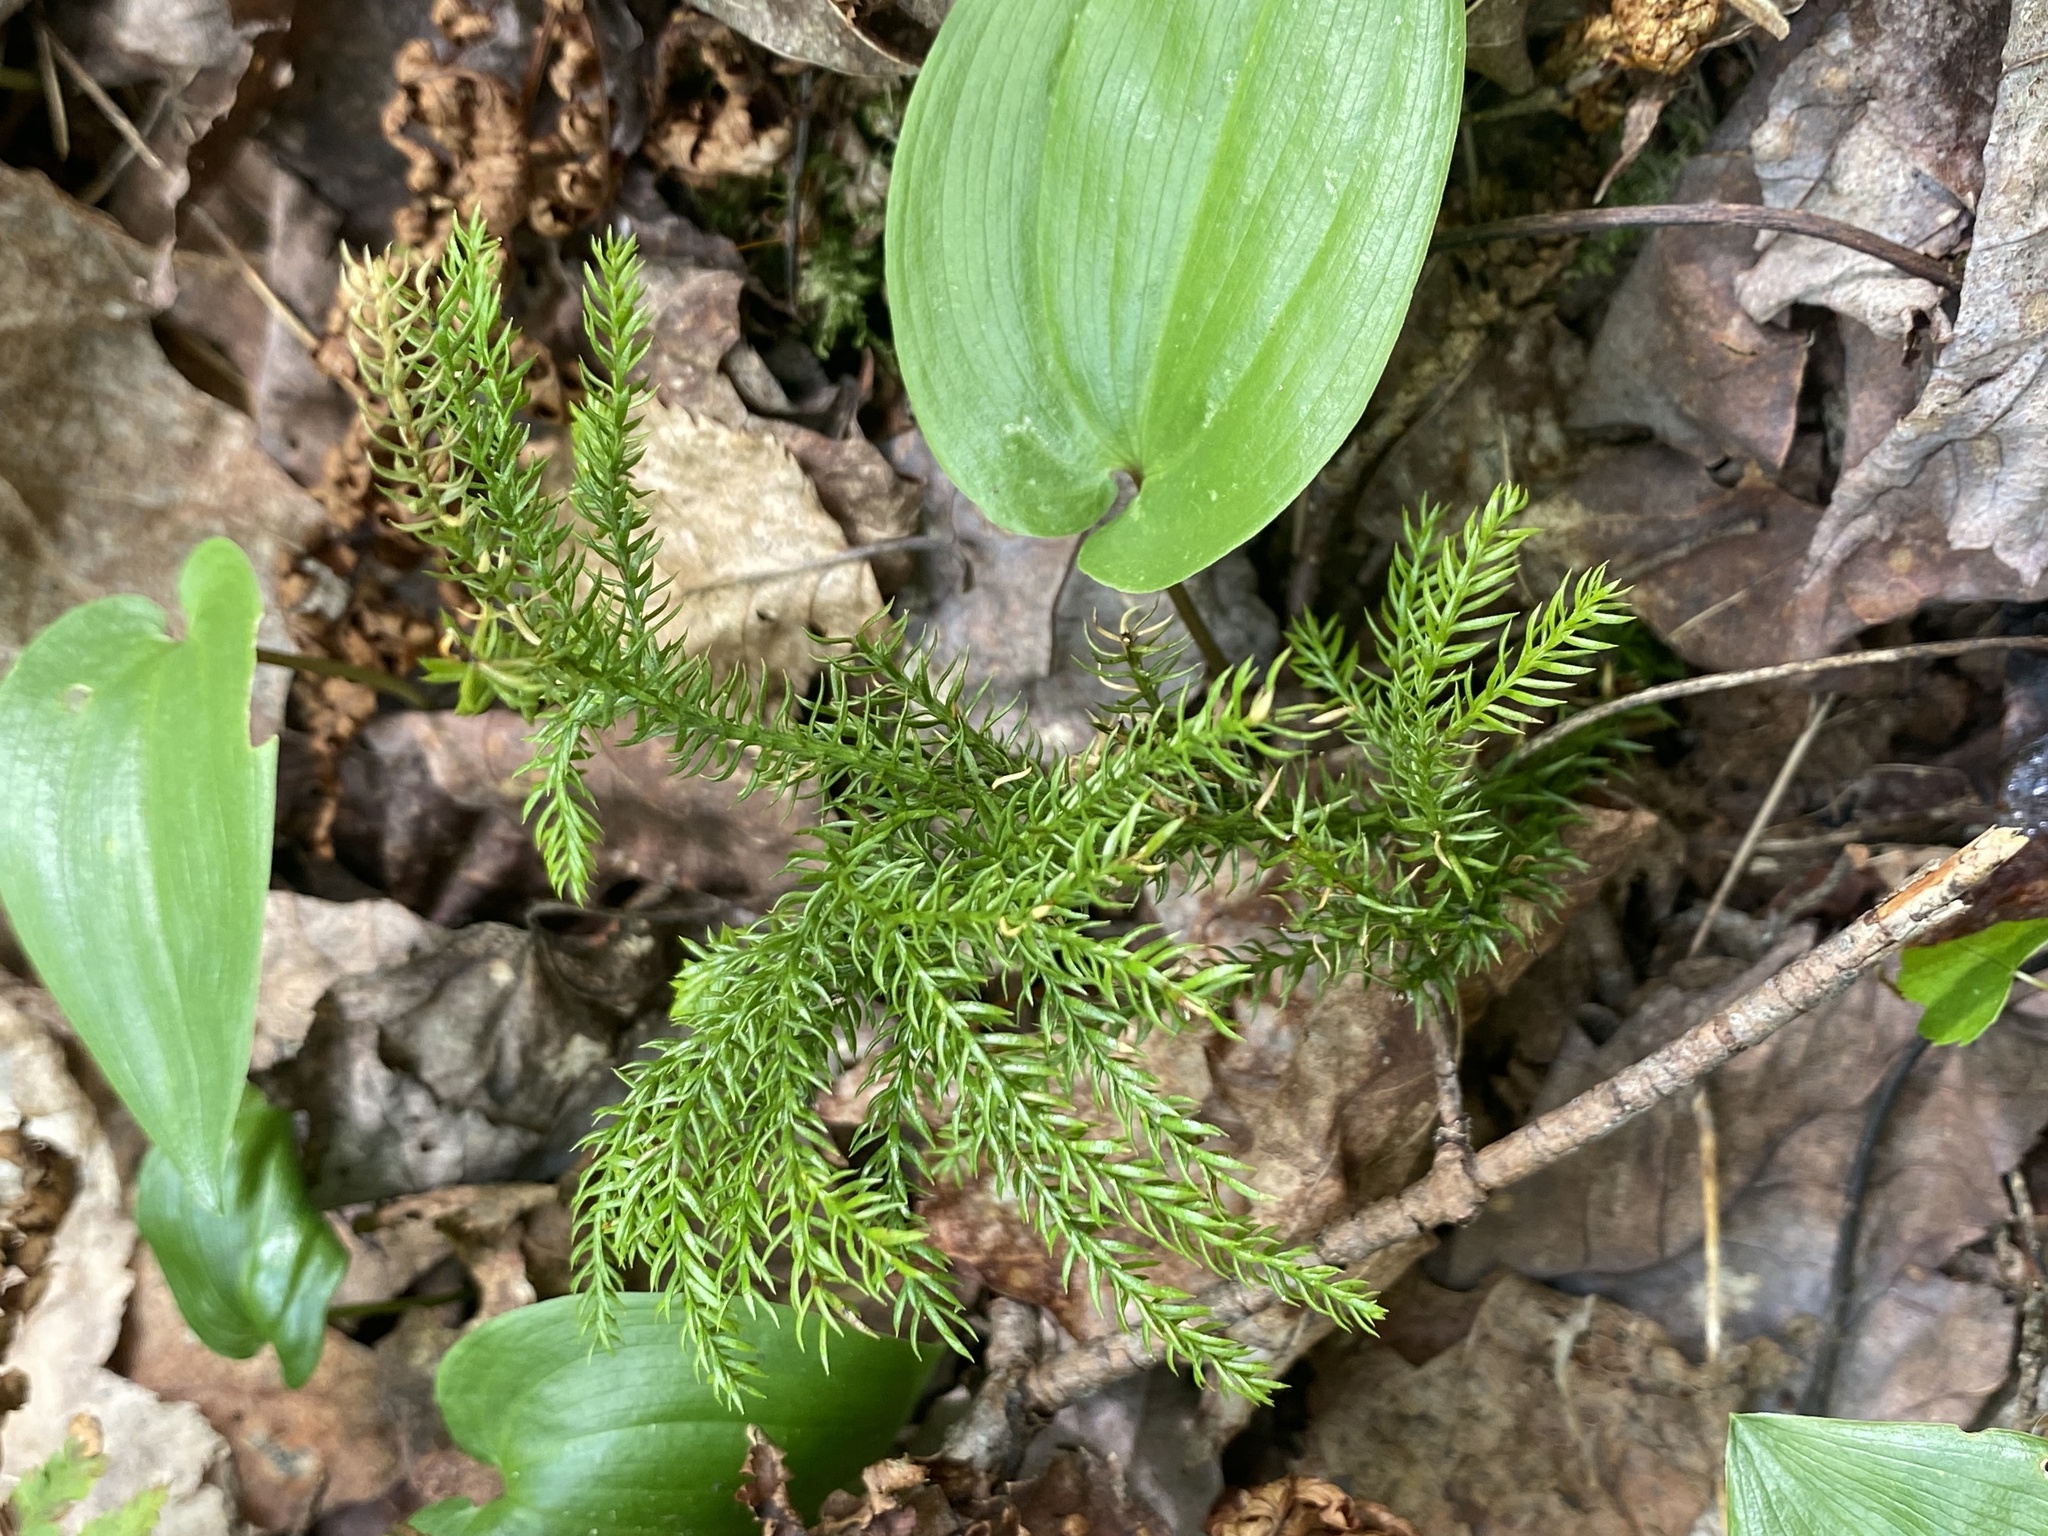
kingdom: Plantae
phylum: Tracheophyta
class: Lycopodiopsida
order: Lycopodiales
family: Lycopodiaceae
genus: Dendrolycopodium
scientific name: Dendrolycopodium dendroideum
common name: Northern tree-clubmoss
